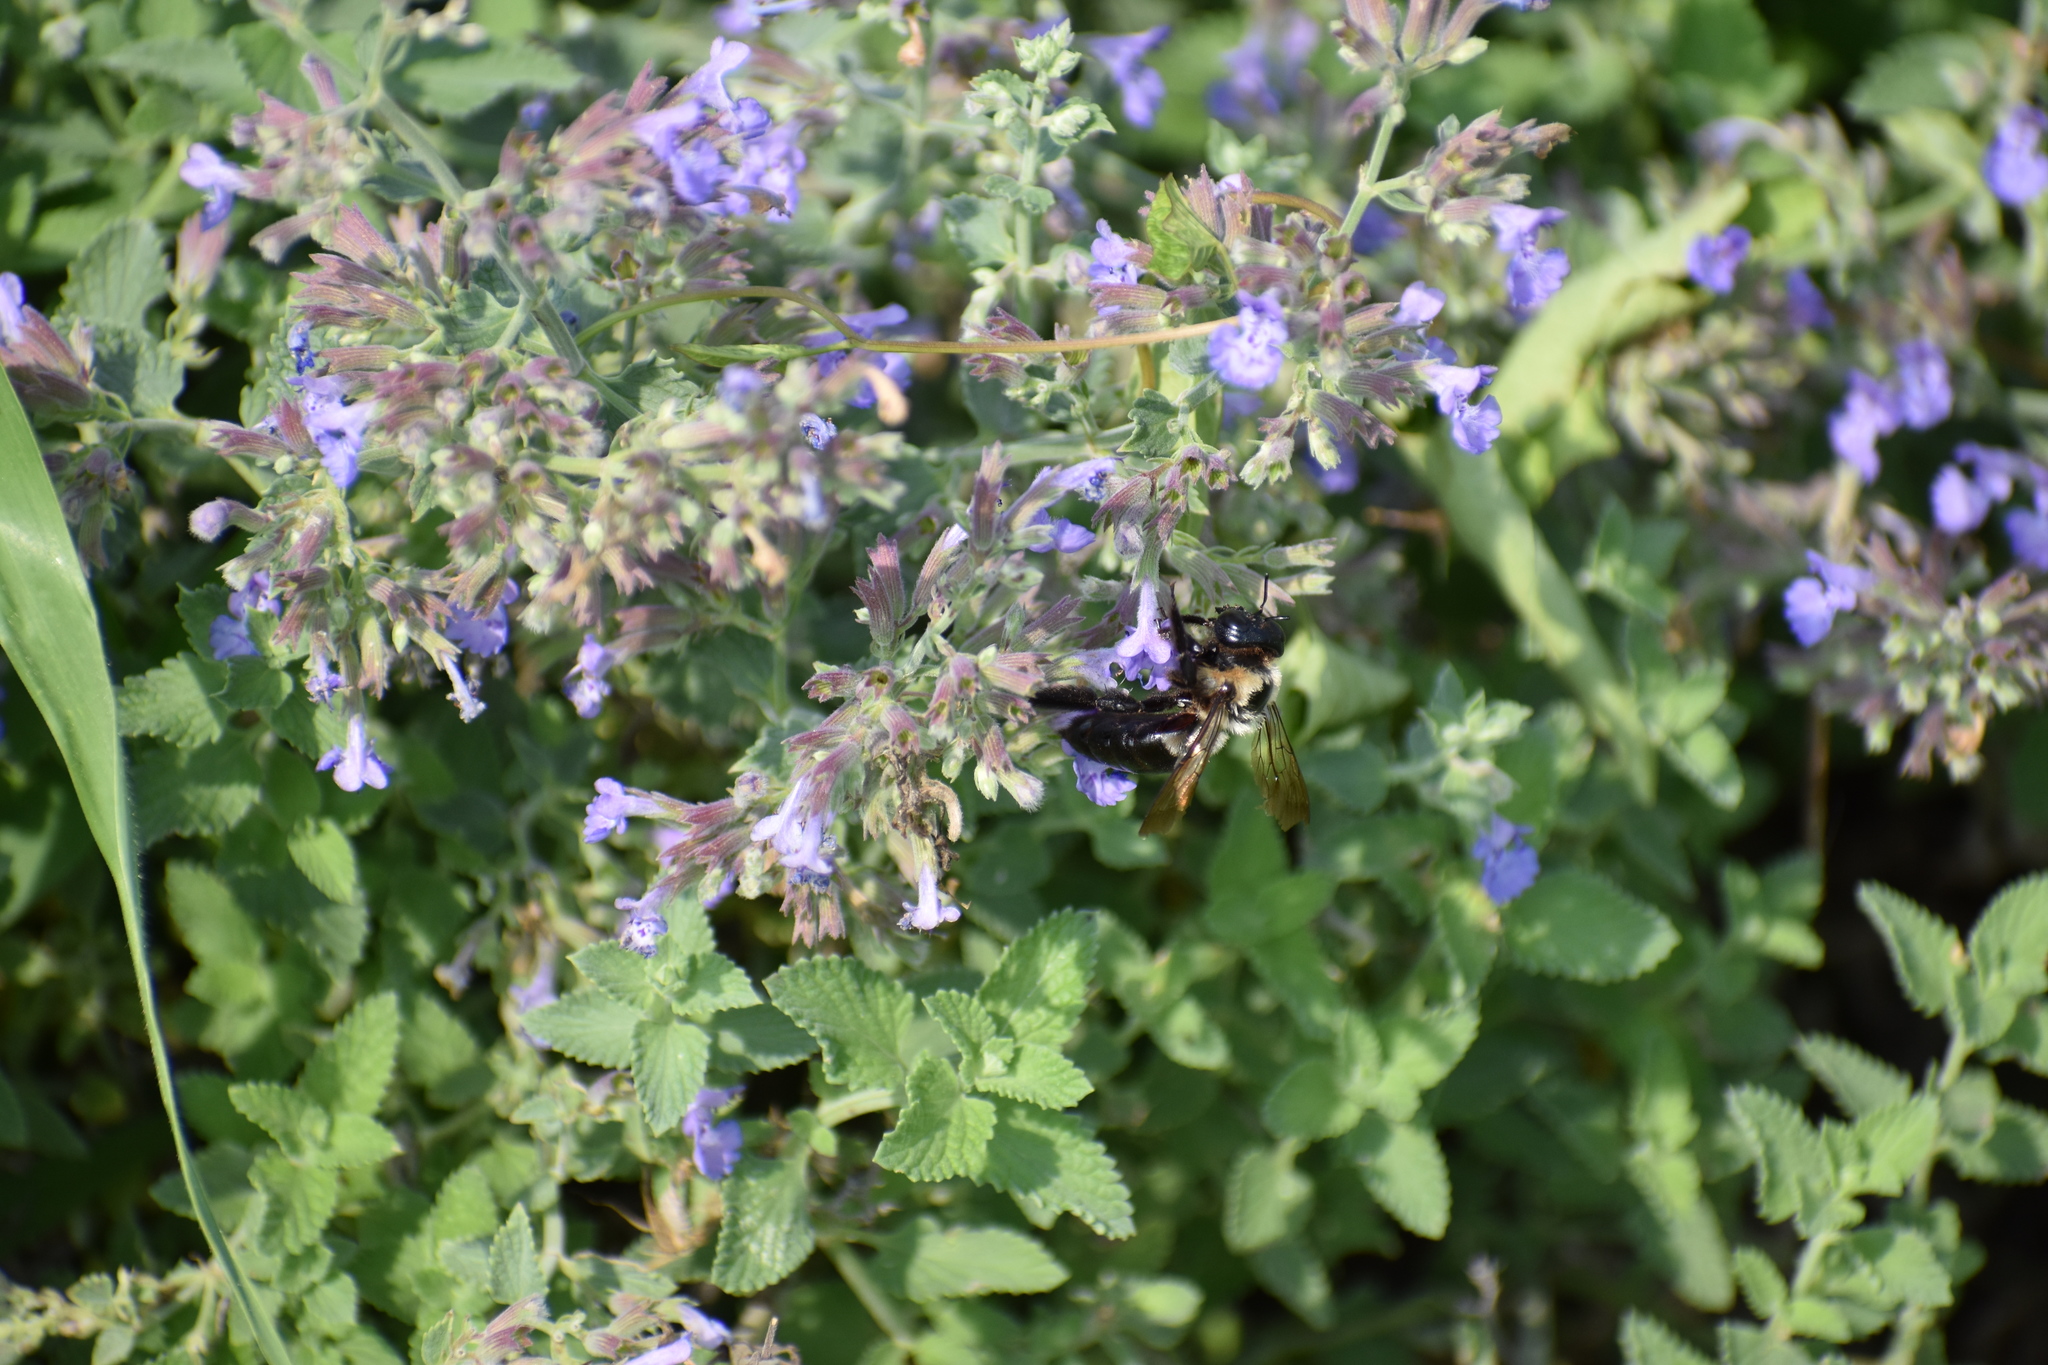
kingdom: Animalia
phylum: Arthropoda
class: Insecta
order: Hymenoptera
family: Apidae
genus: Xylocopa
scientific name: Xylocopa virginica
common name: Carpenter bee
